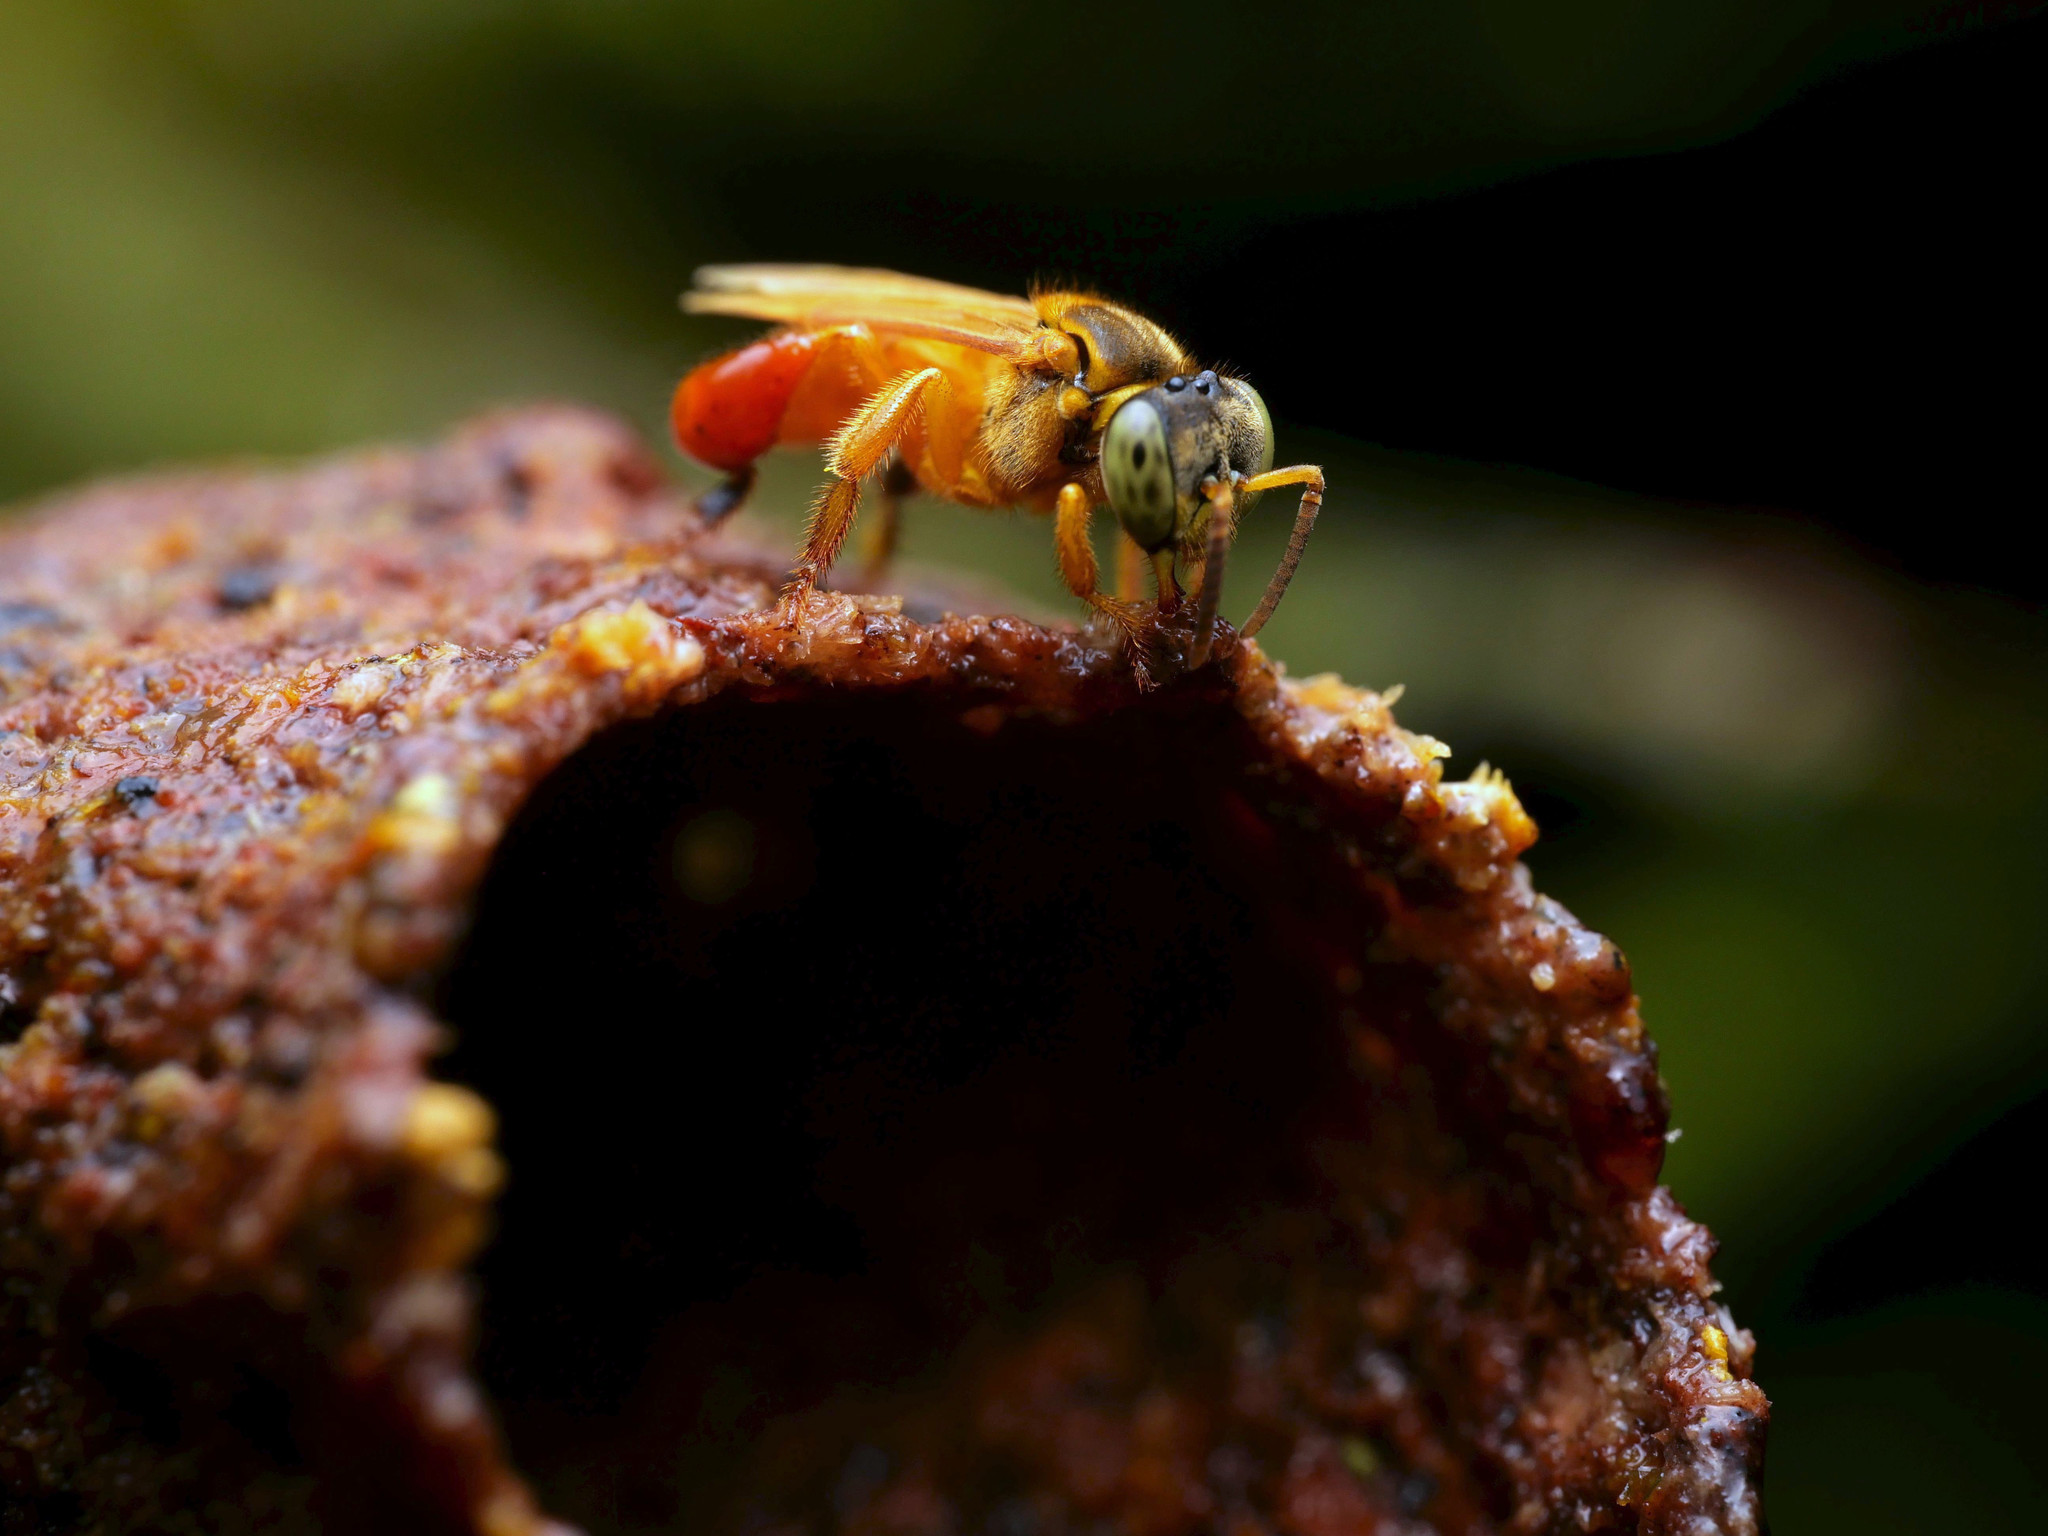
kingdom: Animalia
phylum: Arthropoda
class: Insecta
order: Hymenoptera
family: Apidae
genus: Tetragona
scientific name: Tetragona ziegleri
